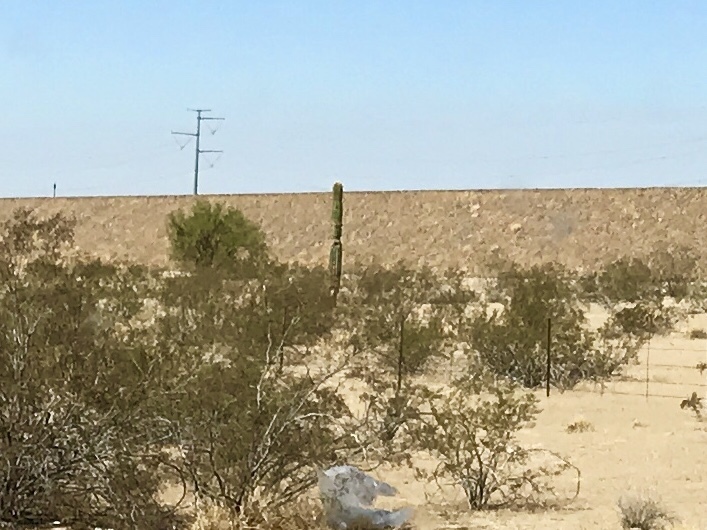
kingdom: Plantae
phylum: Tracheophyta
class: Magnoliopsida
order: Caryophyllales
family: Cactaceae
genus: Carnegiea
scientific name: Carnegiea gigantea
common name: Saguaro
